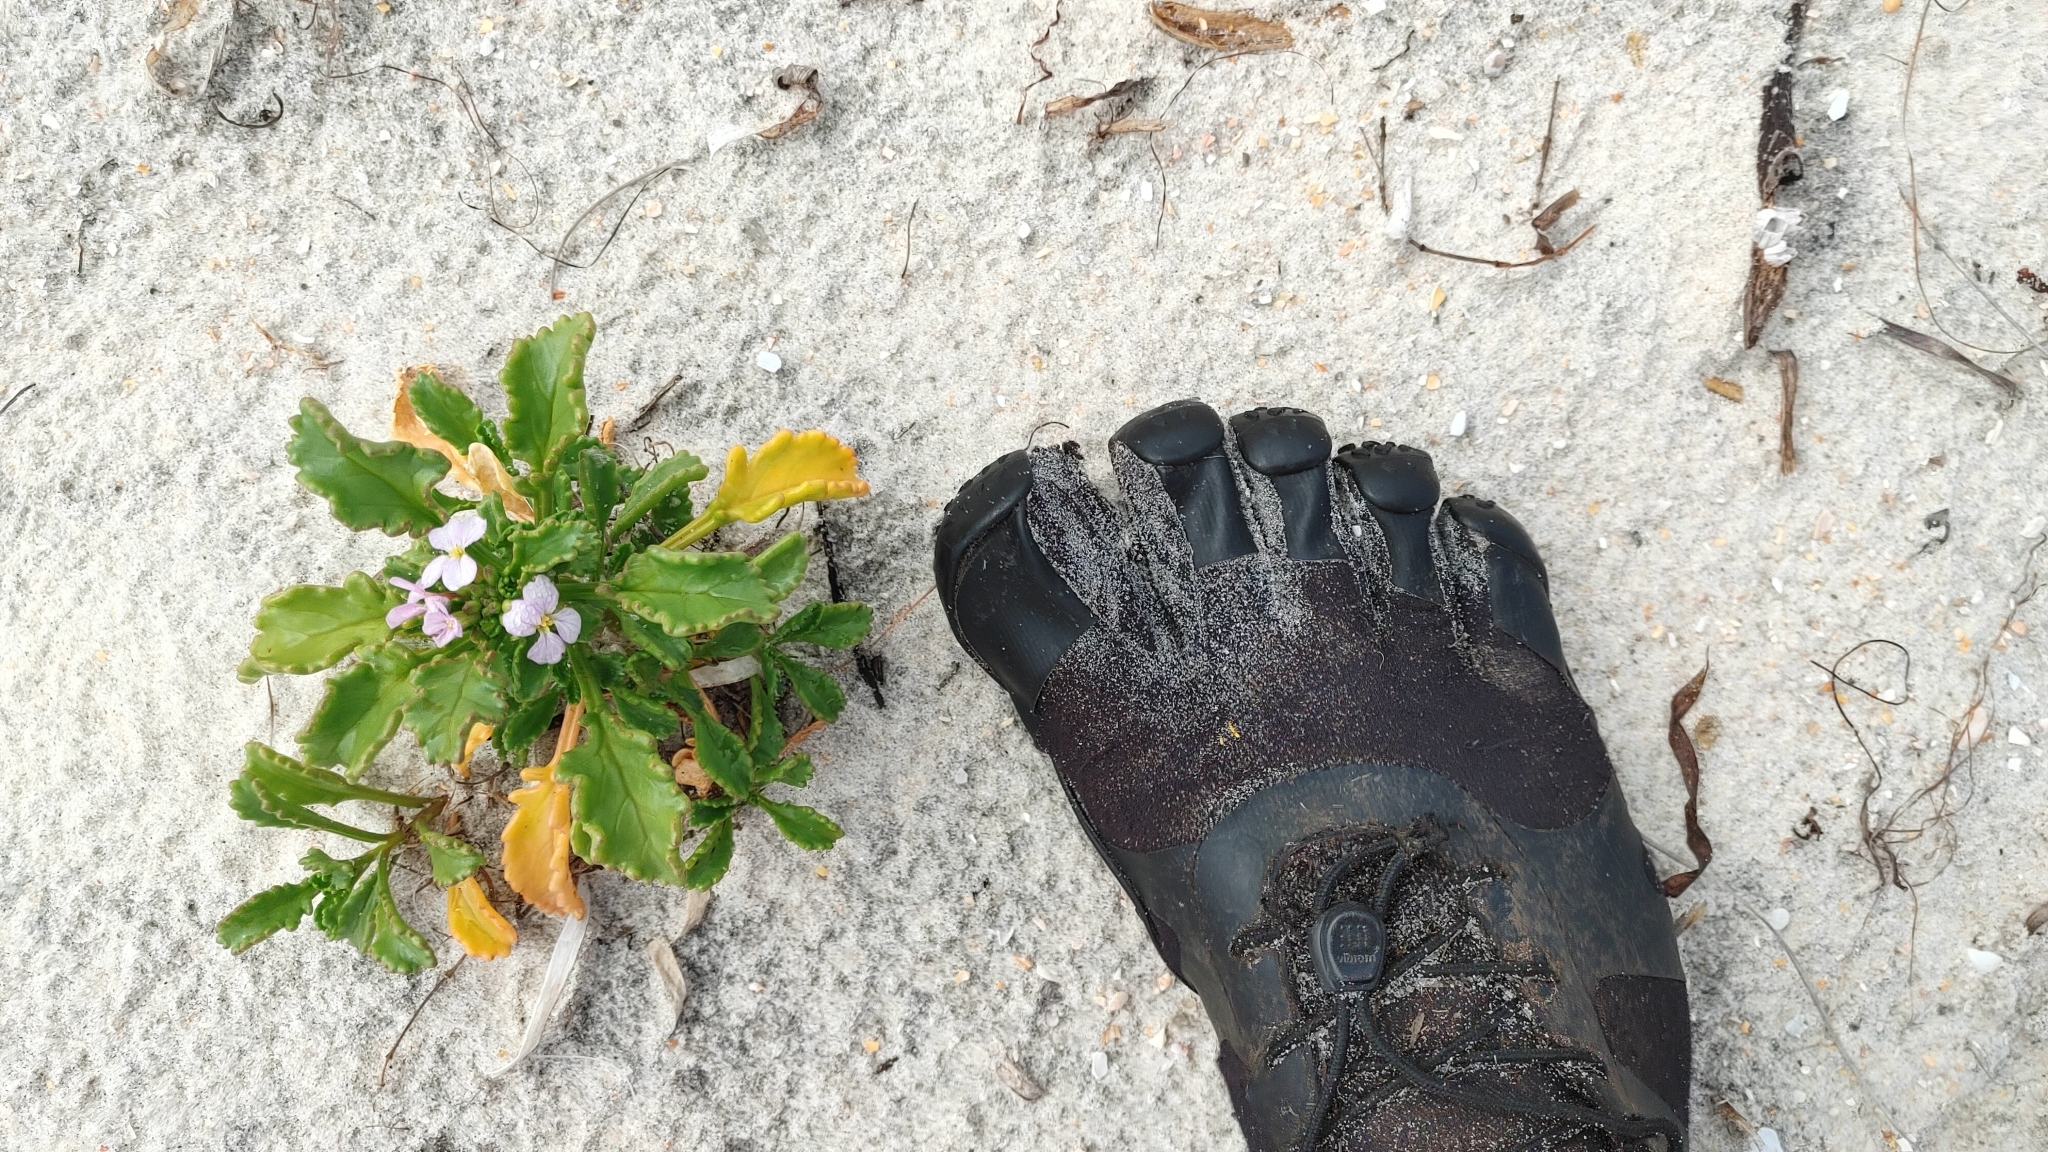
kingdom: Plantae
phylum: Tracheophyta
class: Magnoliopsida
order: Brassicales
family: Brassicaceae
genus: Cakile
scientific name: Cakile lanceolata
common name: Sea rocket
